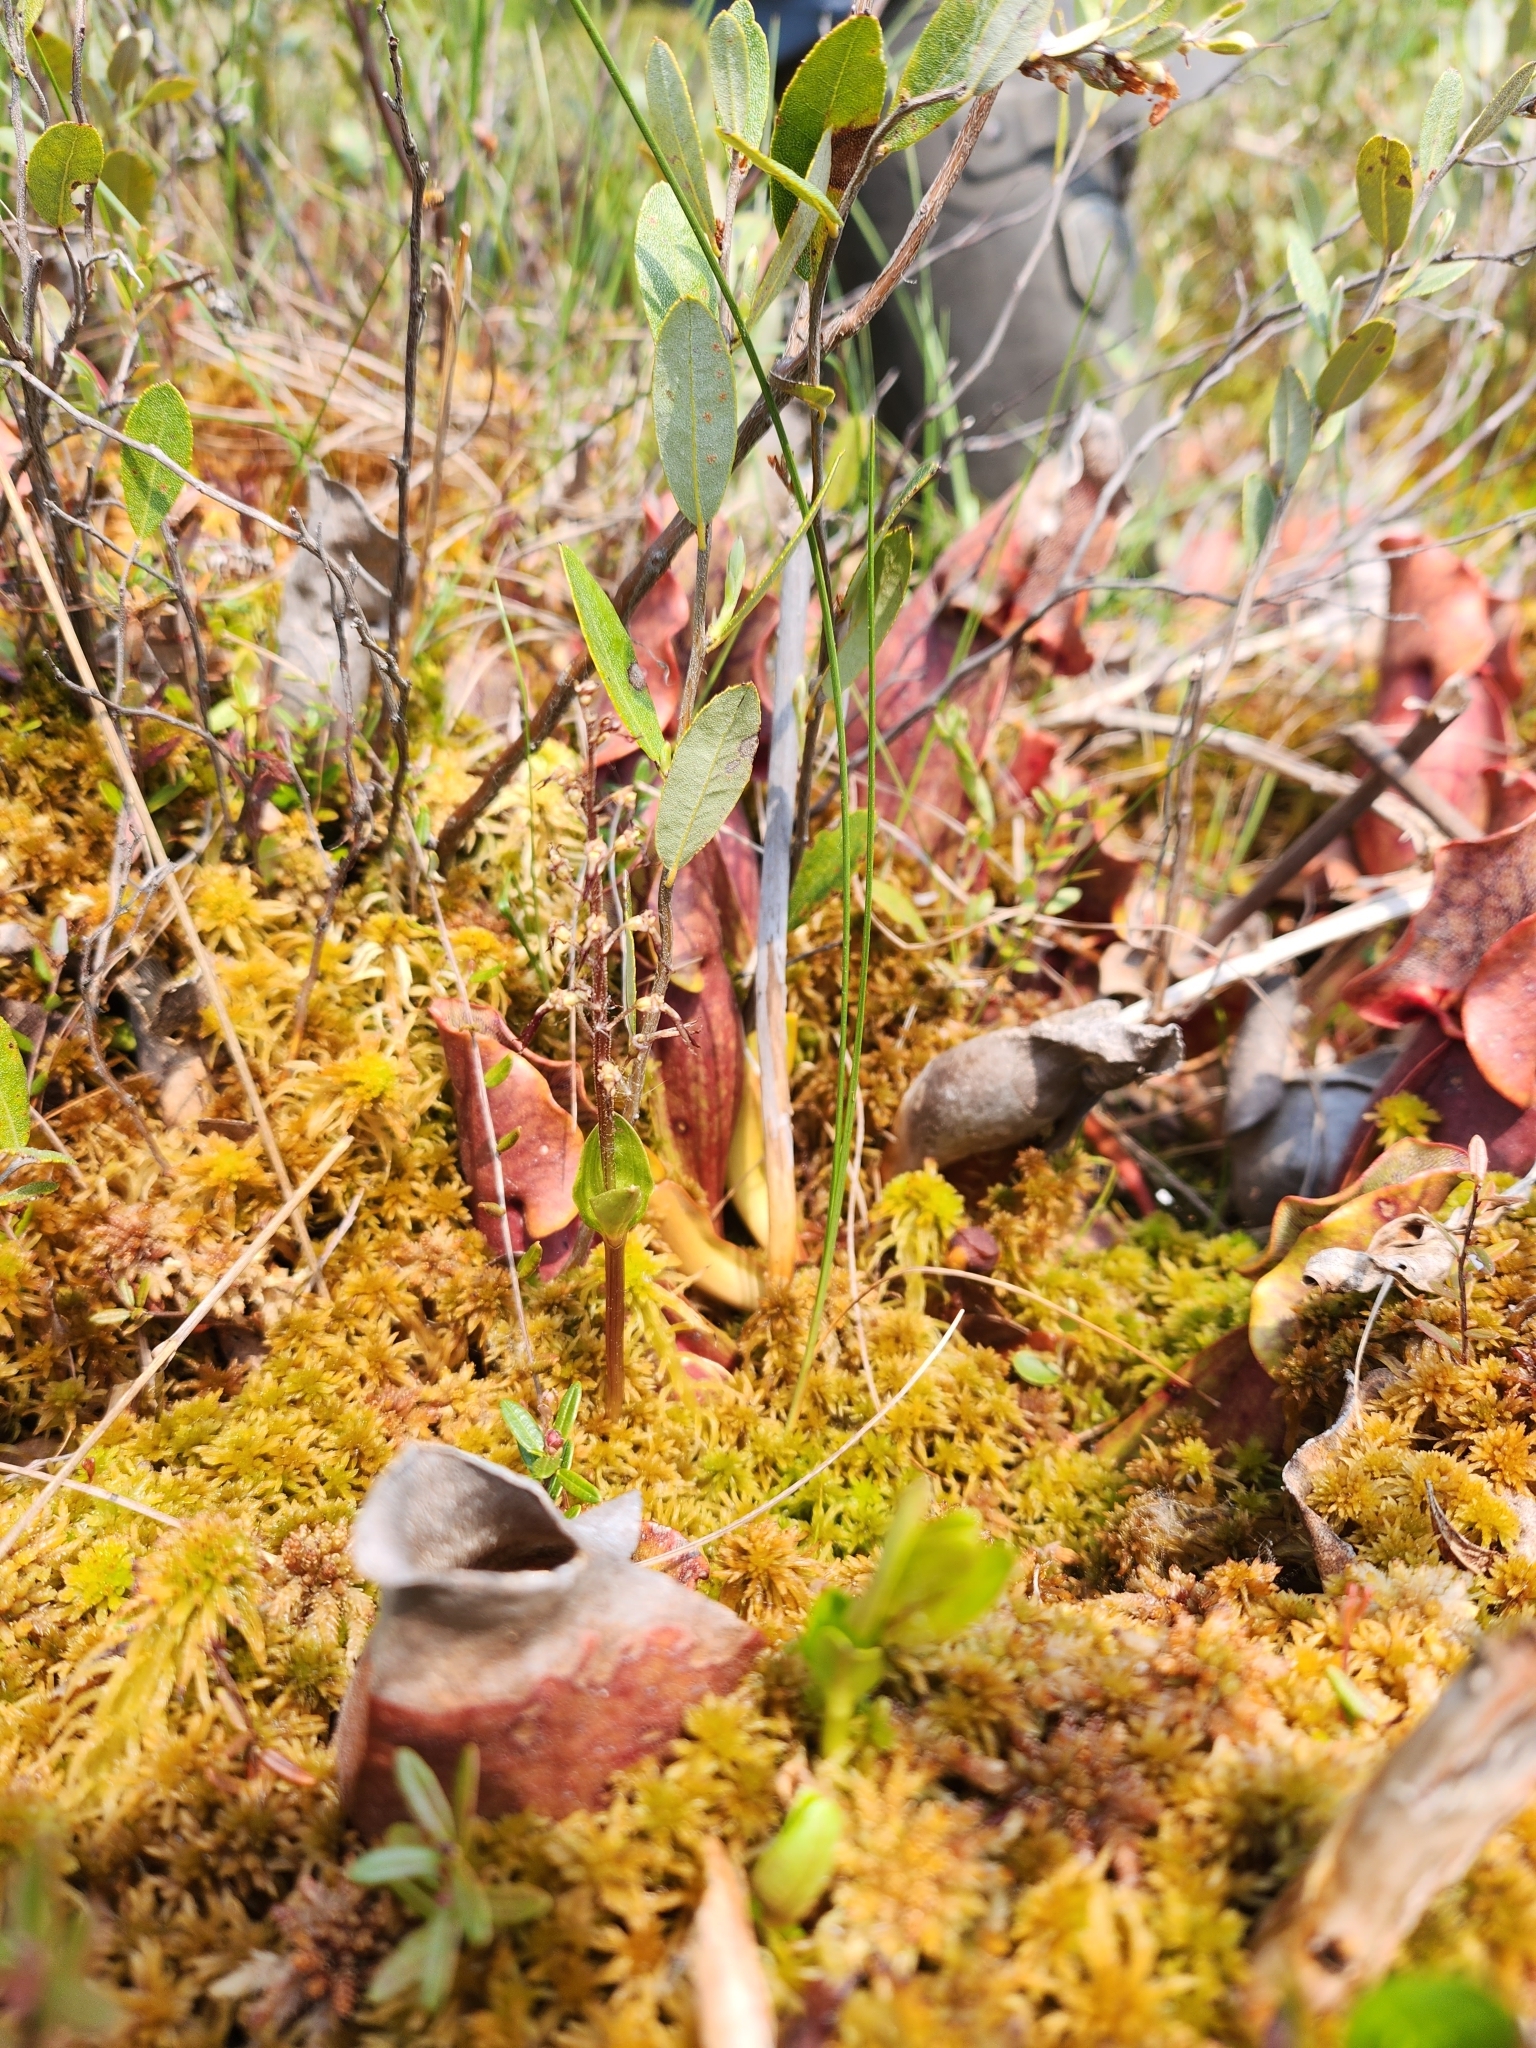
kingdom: Plantae
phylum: Tracheophyta
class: Liliopsida
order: Asparagales
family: Orchidaceae
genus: Neottia
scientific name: Neottia bifolia
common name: Southern twayblade
